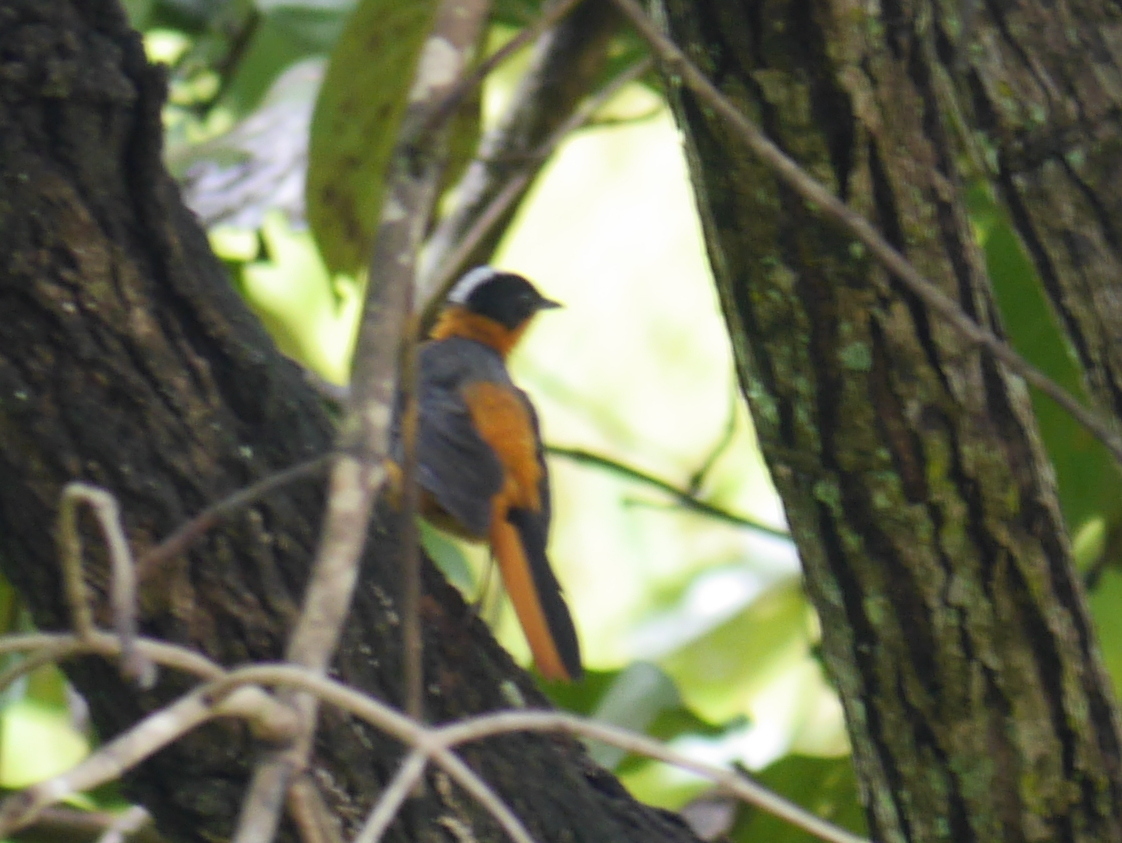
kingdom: Animalia
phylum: Chordata
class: Aves
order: Passeriformes
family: Muscicapidae
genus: Cossypha
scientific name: Cossypha niveicapilla
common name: Snowy-crowned robin-chat
